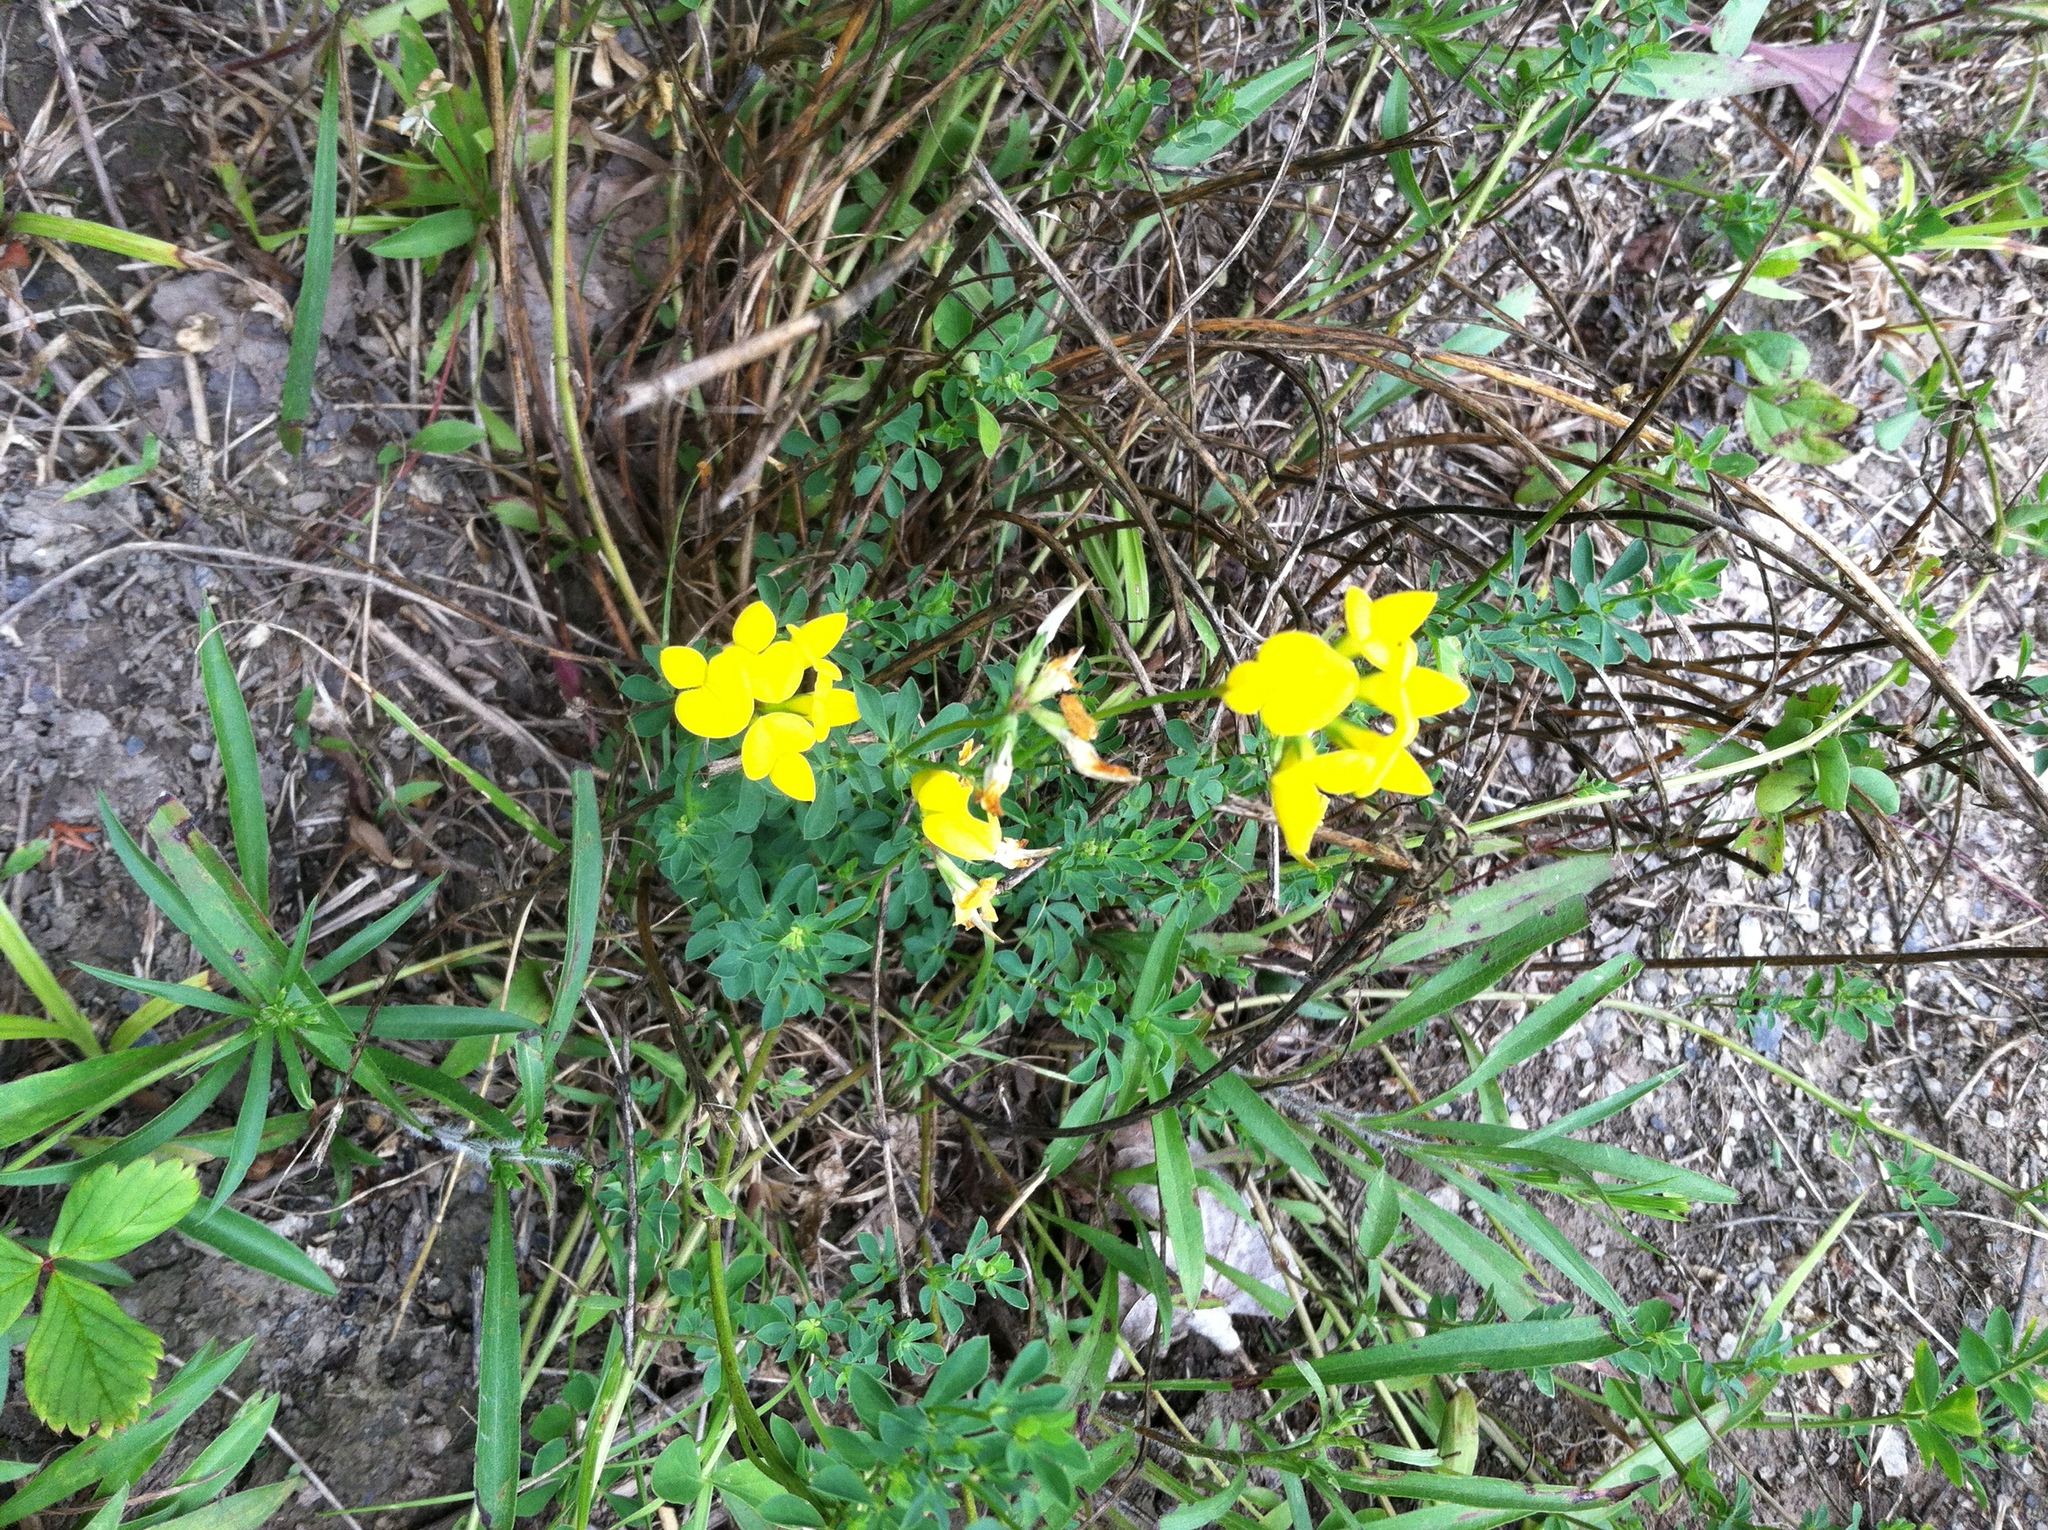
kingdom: Plantae
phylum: Tracheophyta
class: Magnoliopsida
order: Fabales
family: Fabaceae
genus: Lotus
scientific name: Lotus corniculatus
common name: Common bird's-foot-trefoil
